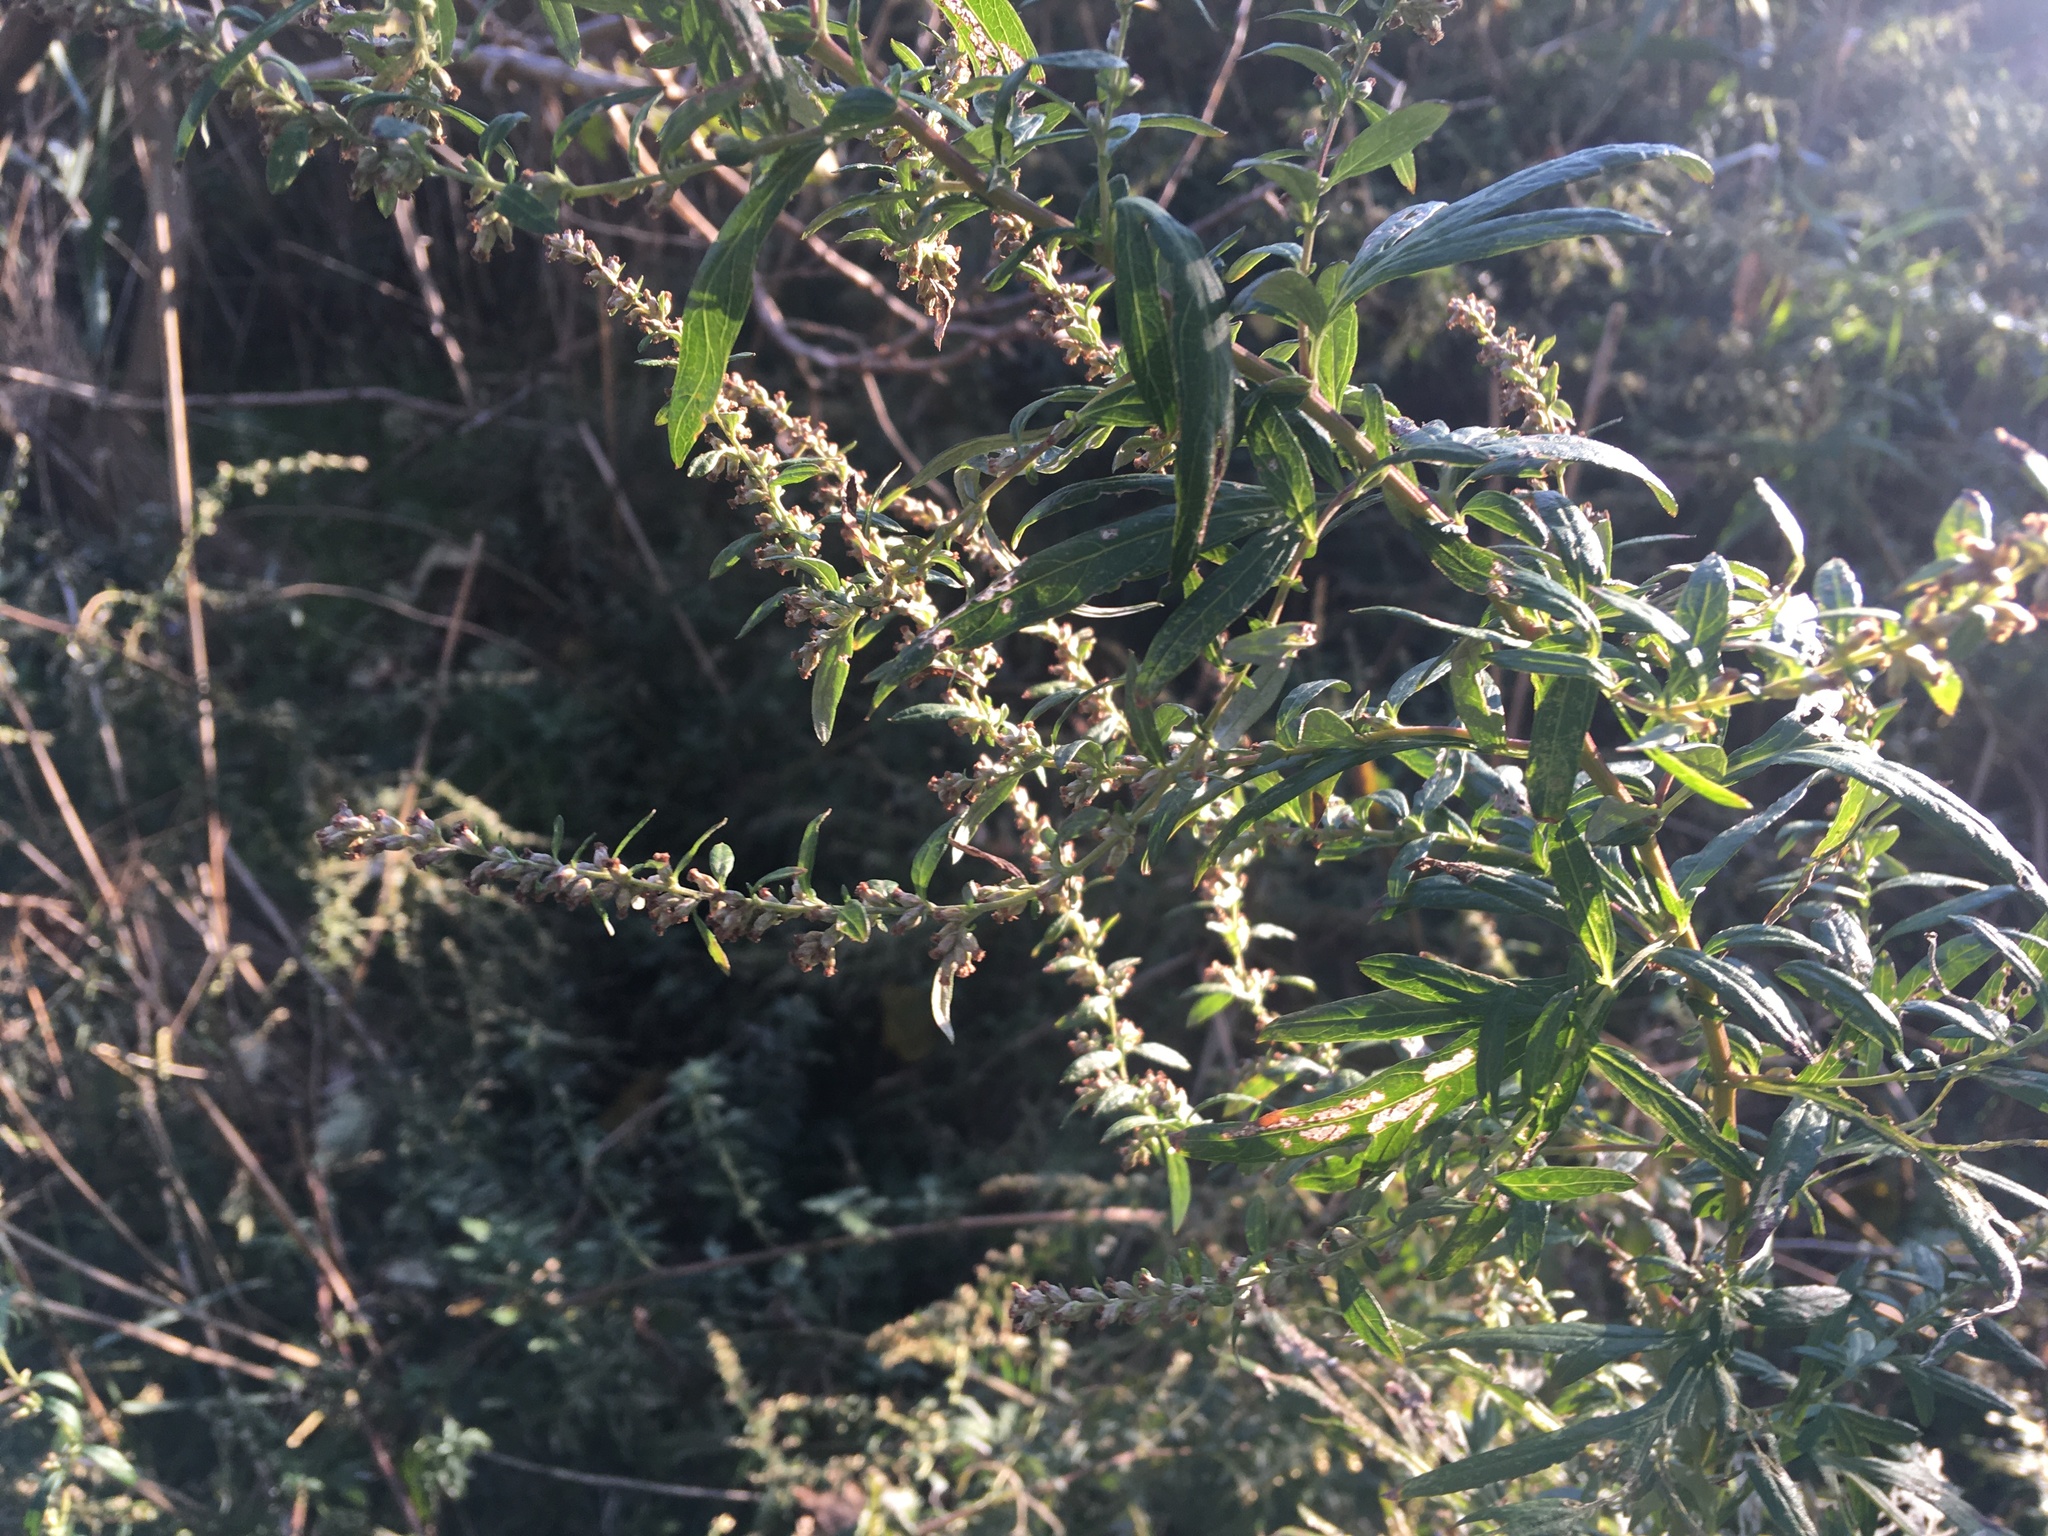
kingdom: Plantae
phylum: Tracheophyta
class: Magnoliopsida
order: Asterales
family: Asteraceae
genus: Artemisia
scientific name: Artemisia vulgaris
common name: Mugwort
